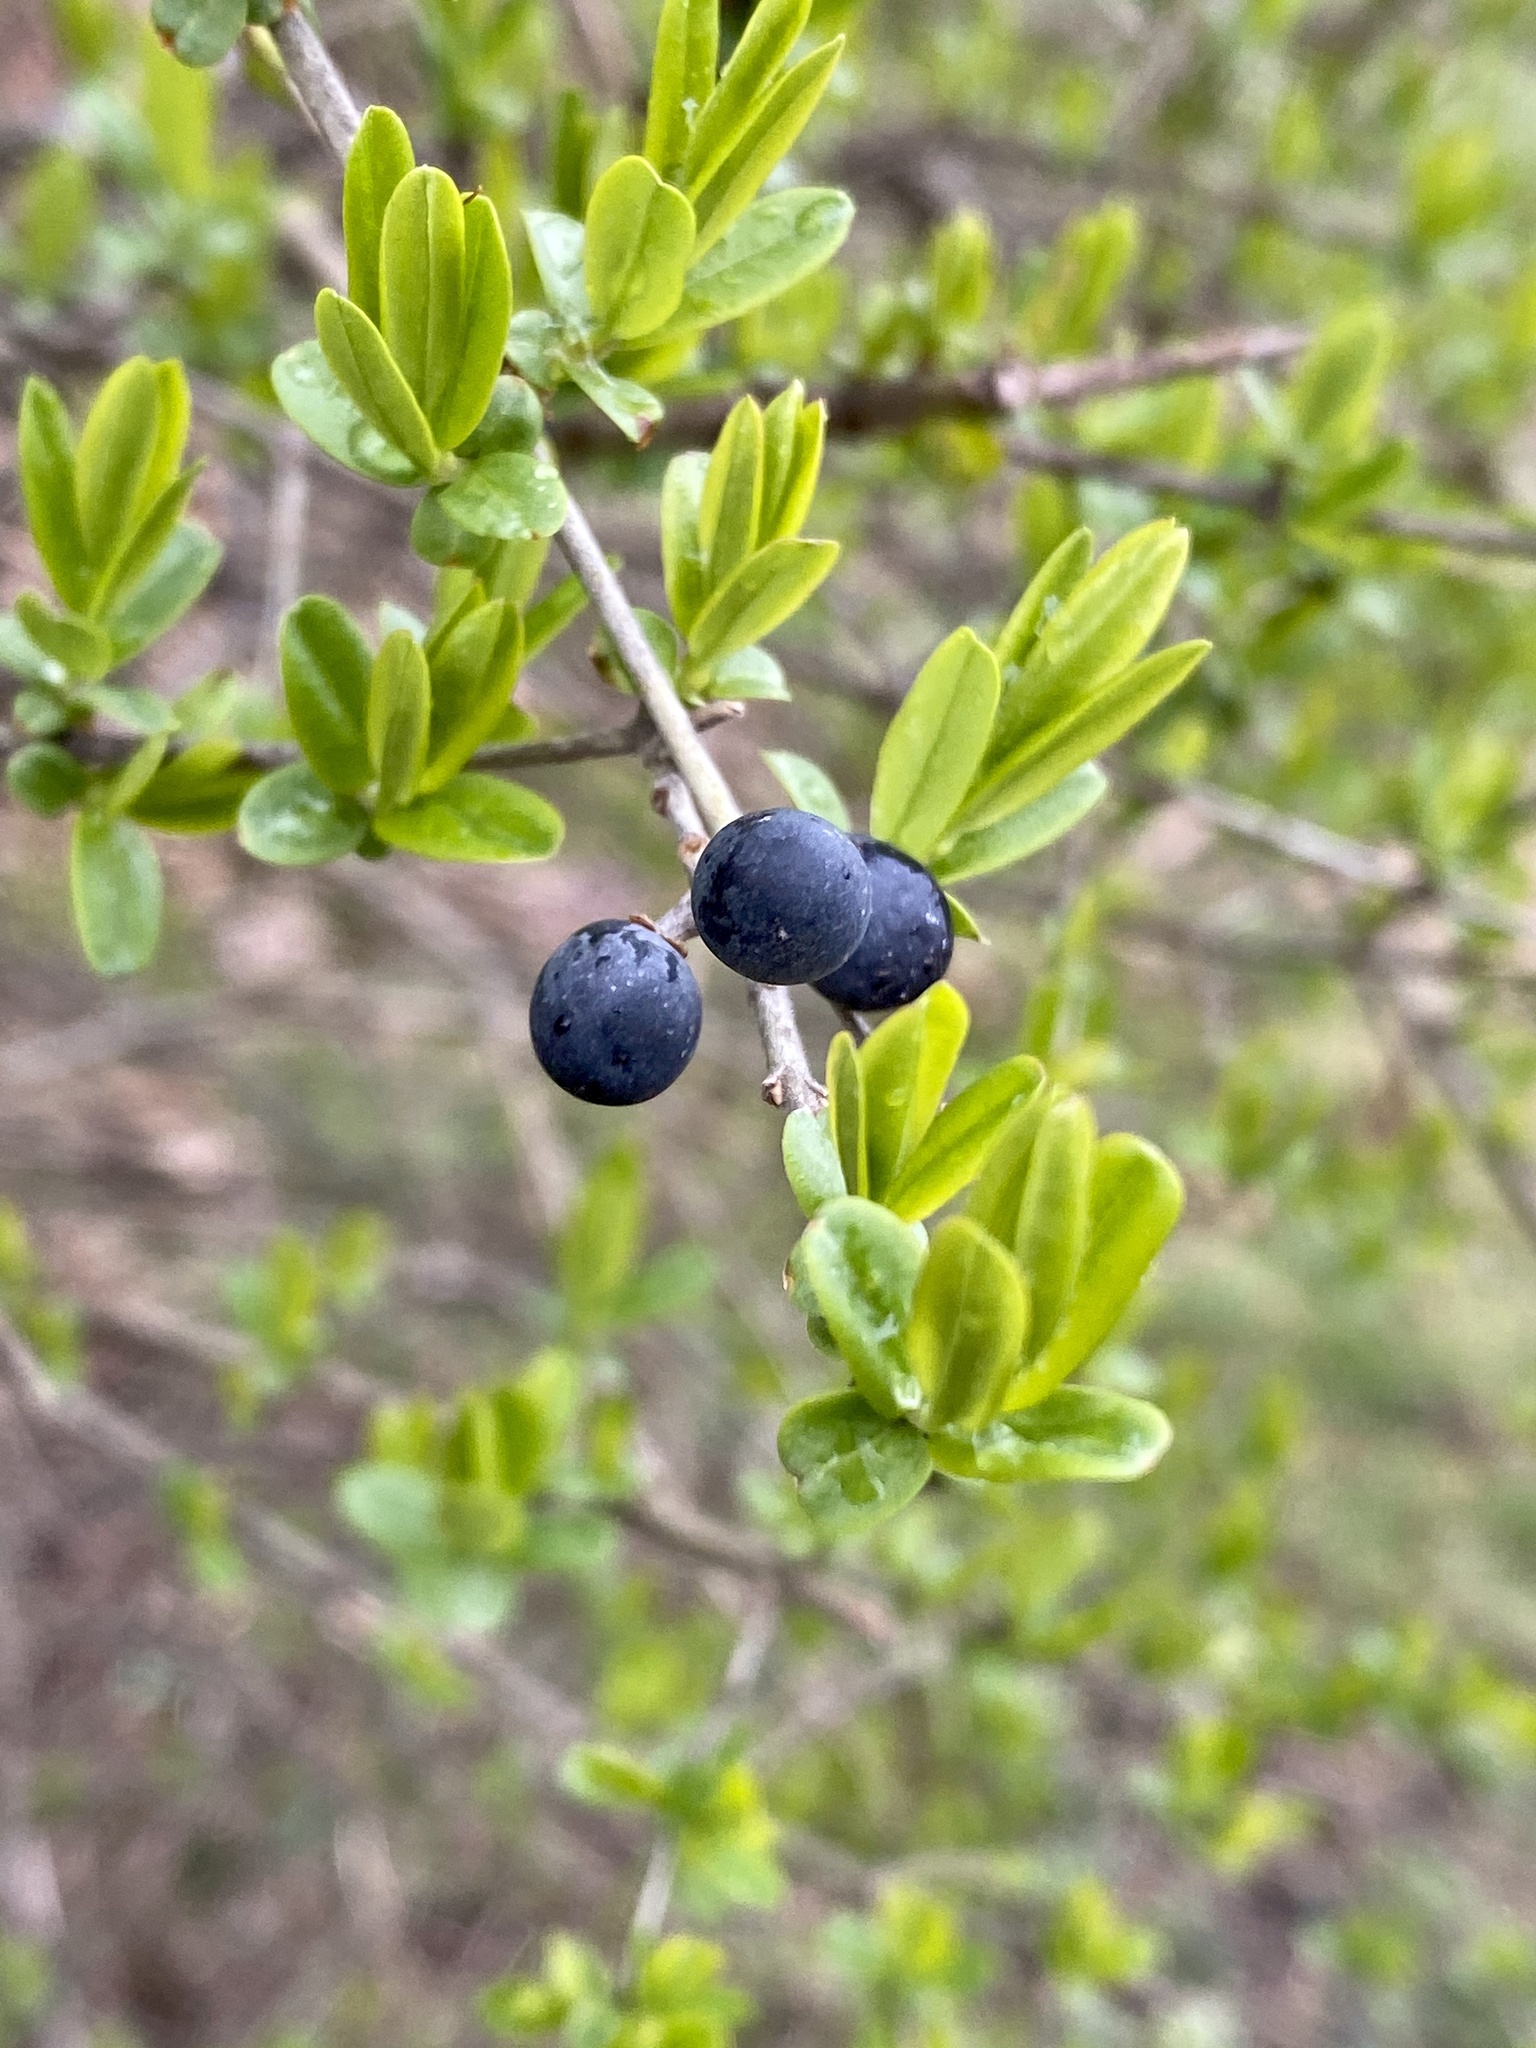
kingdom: Plantae
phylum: Tracheophyta
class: Magnoliopsida
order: Lamiales
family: Oleaceae
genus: Ligustrum
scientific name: Ligustrum obtusifolium
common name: Border privet
